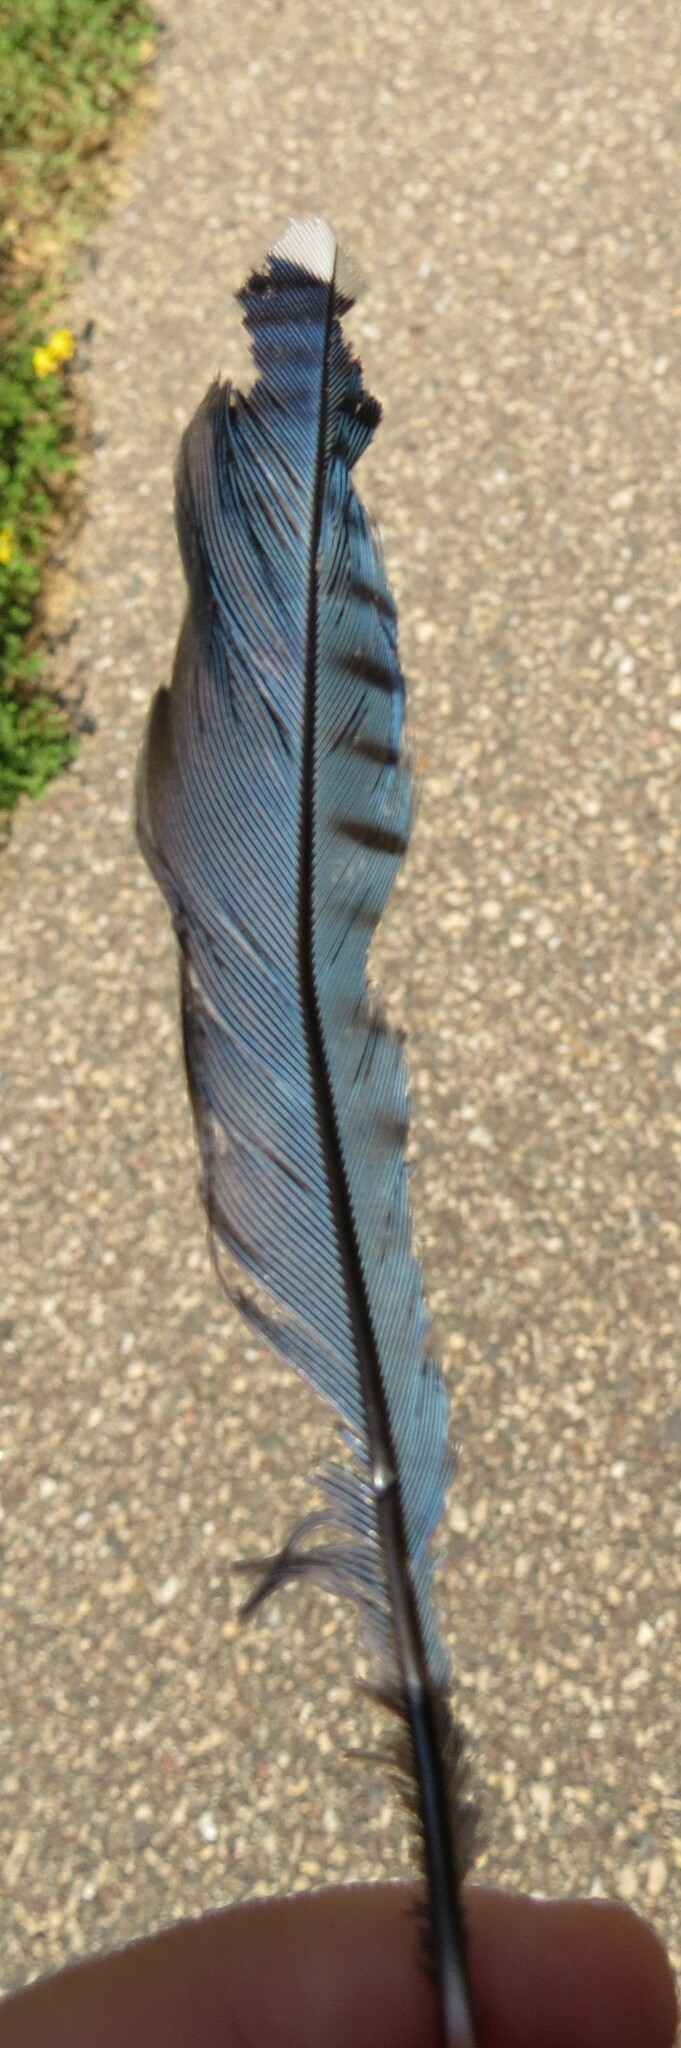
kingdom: Animalia
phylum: Chordata
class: Aves
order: Passeriformes
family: Corvidae
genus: Cyanocitta
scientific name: Cyanocitta cristata
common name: Blue jay
